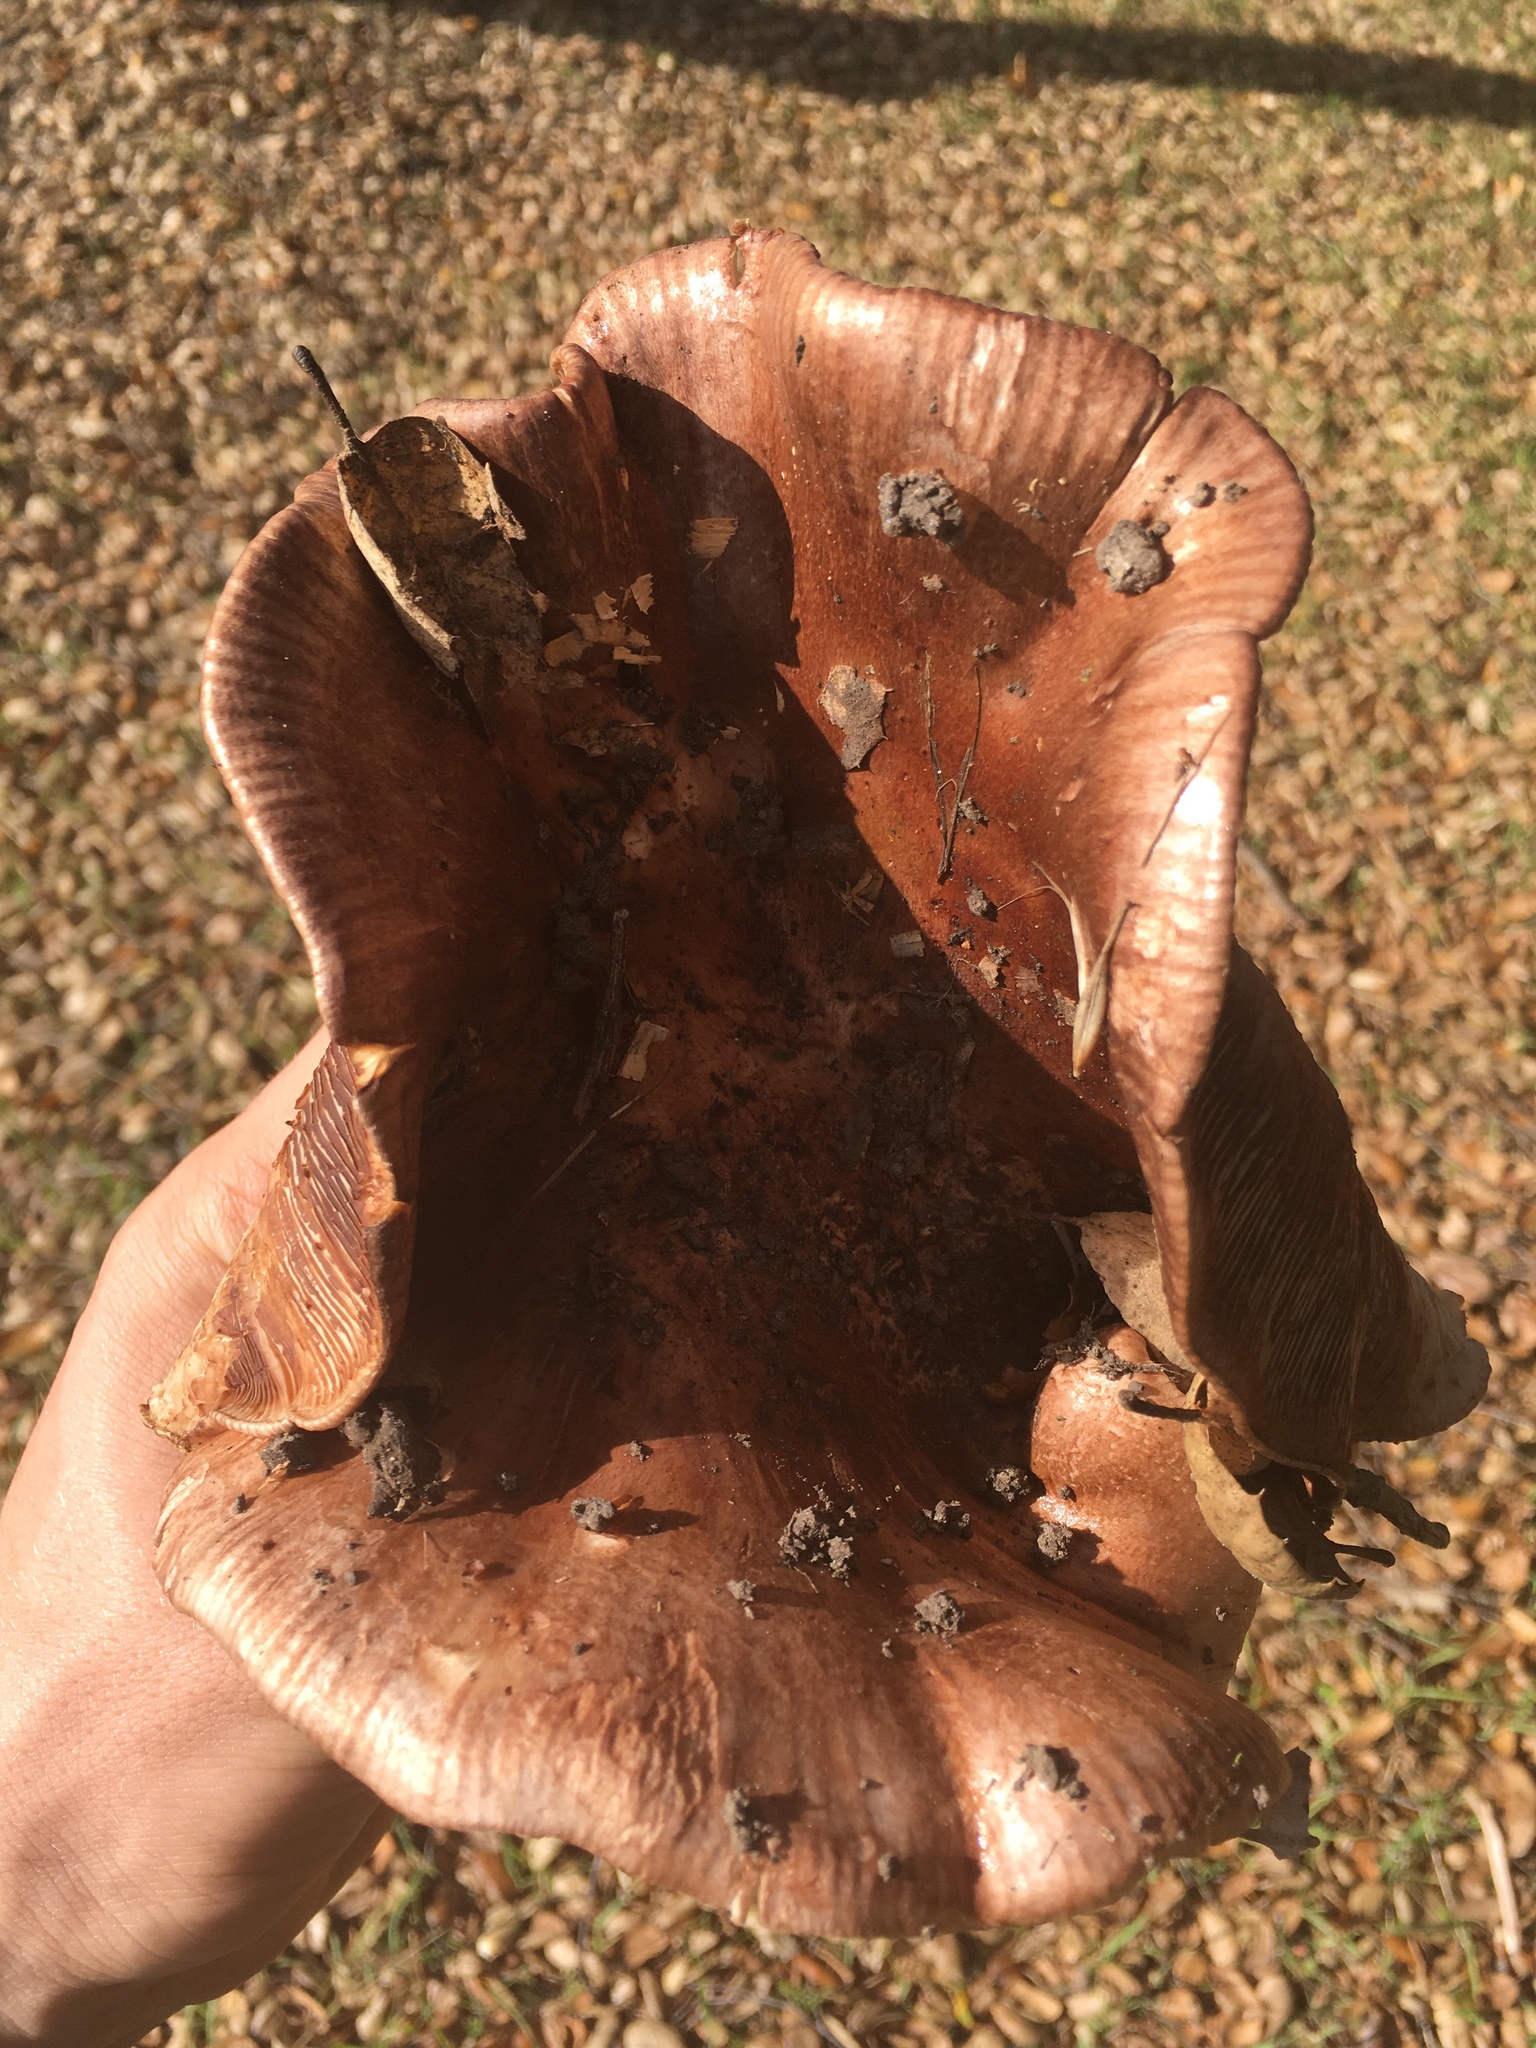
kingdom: Fungi
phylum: Basidiomycota
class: Agaricomycetes
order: Agaricales
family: Tricholomataceae
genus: Melanoleuca
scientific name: Melanoleuca dryophila
